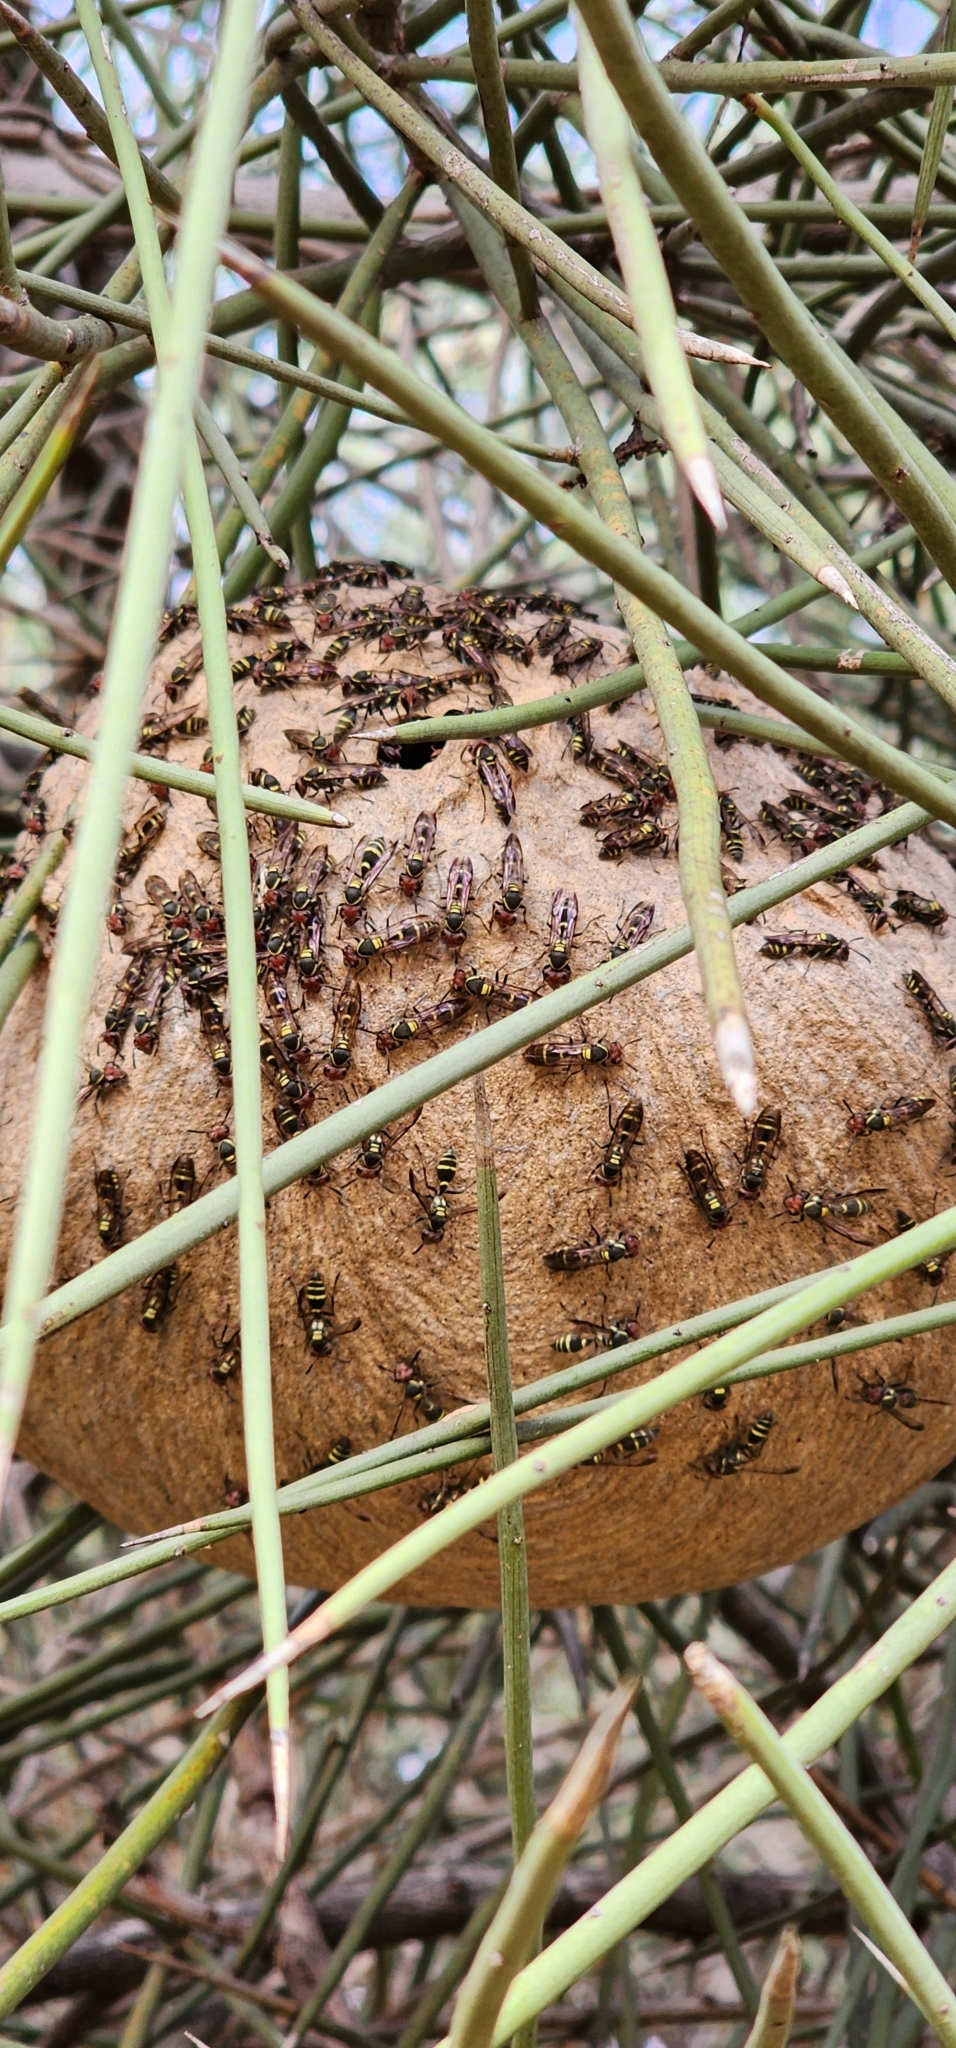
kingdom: Animalia
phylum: Arthropoda
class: Insecta
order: Hymenoptera
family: Eumenidae
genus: Polybia
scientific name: Polybia ruficeps
